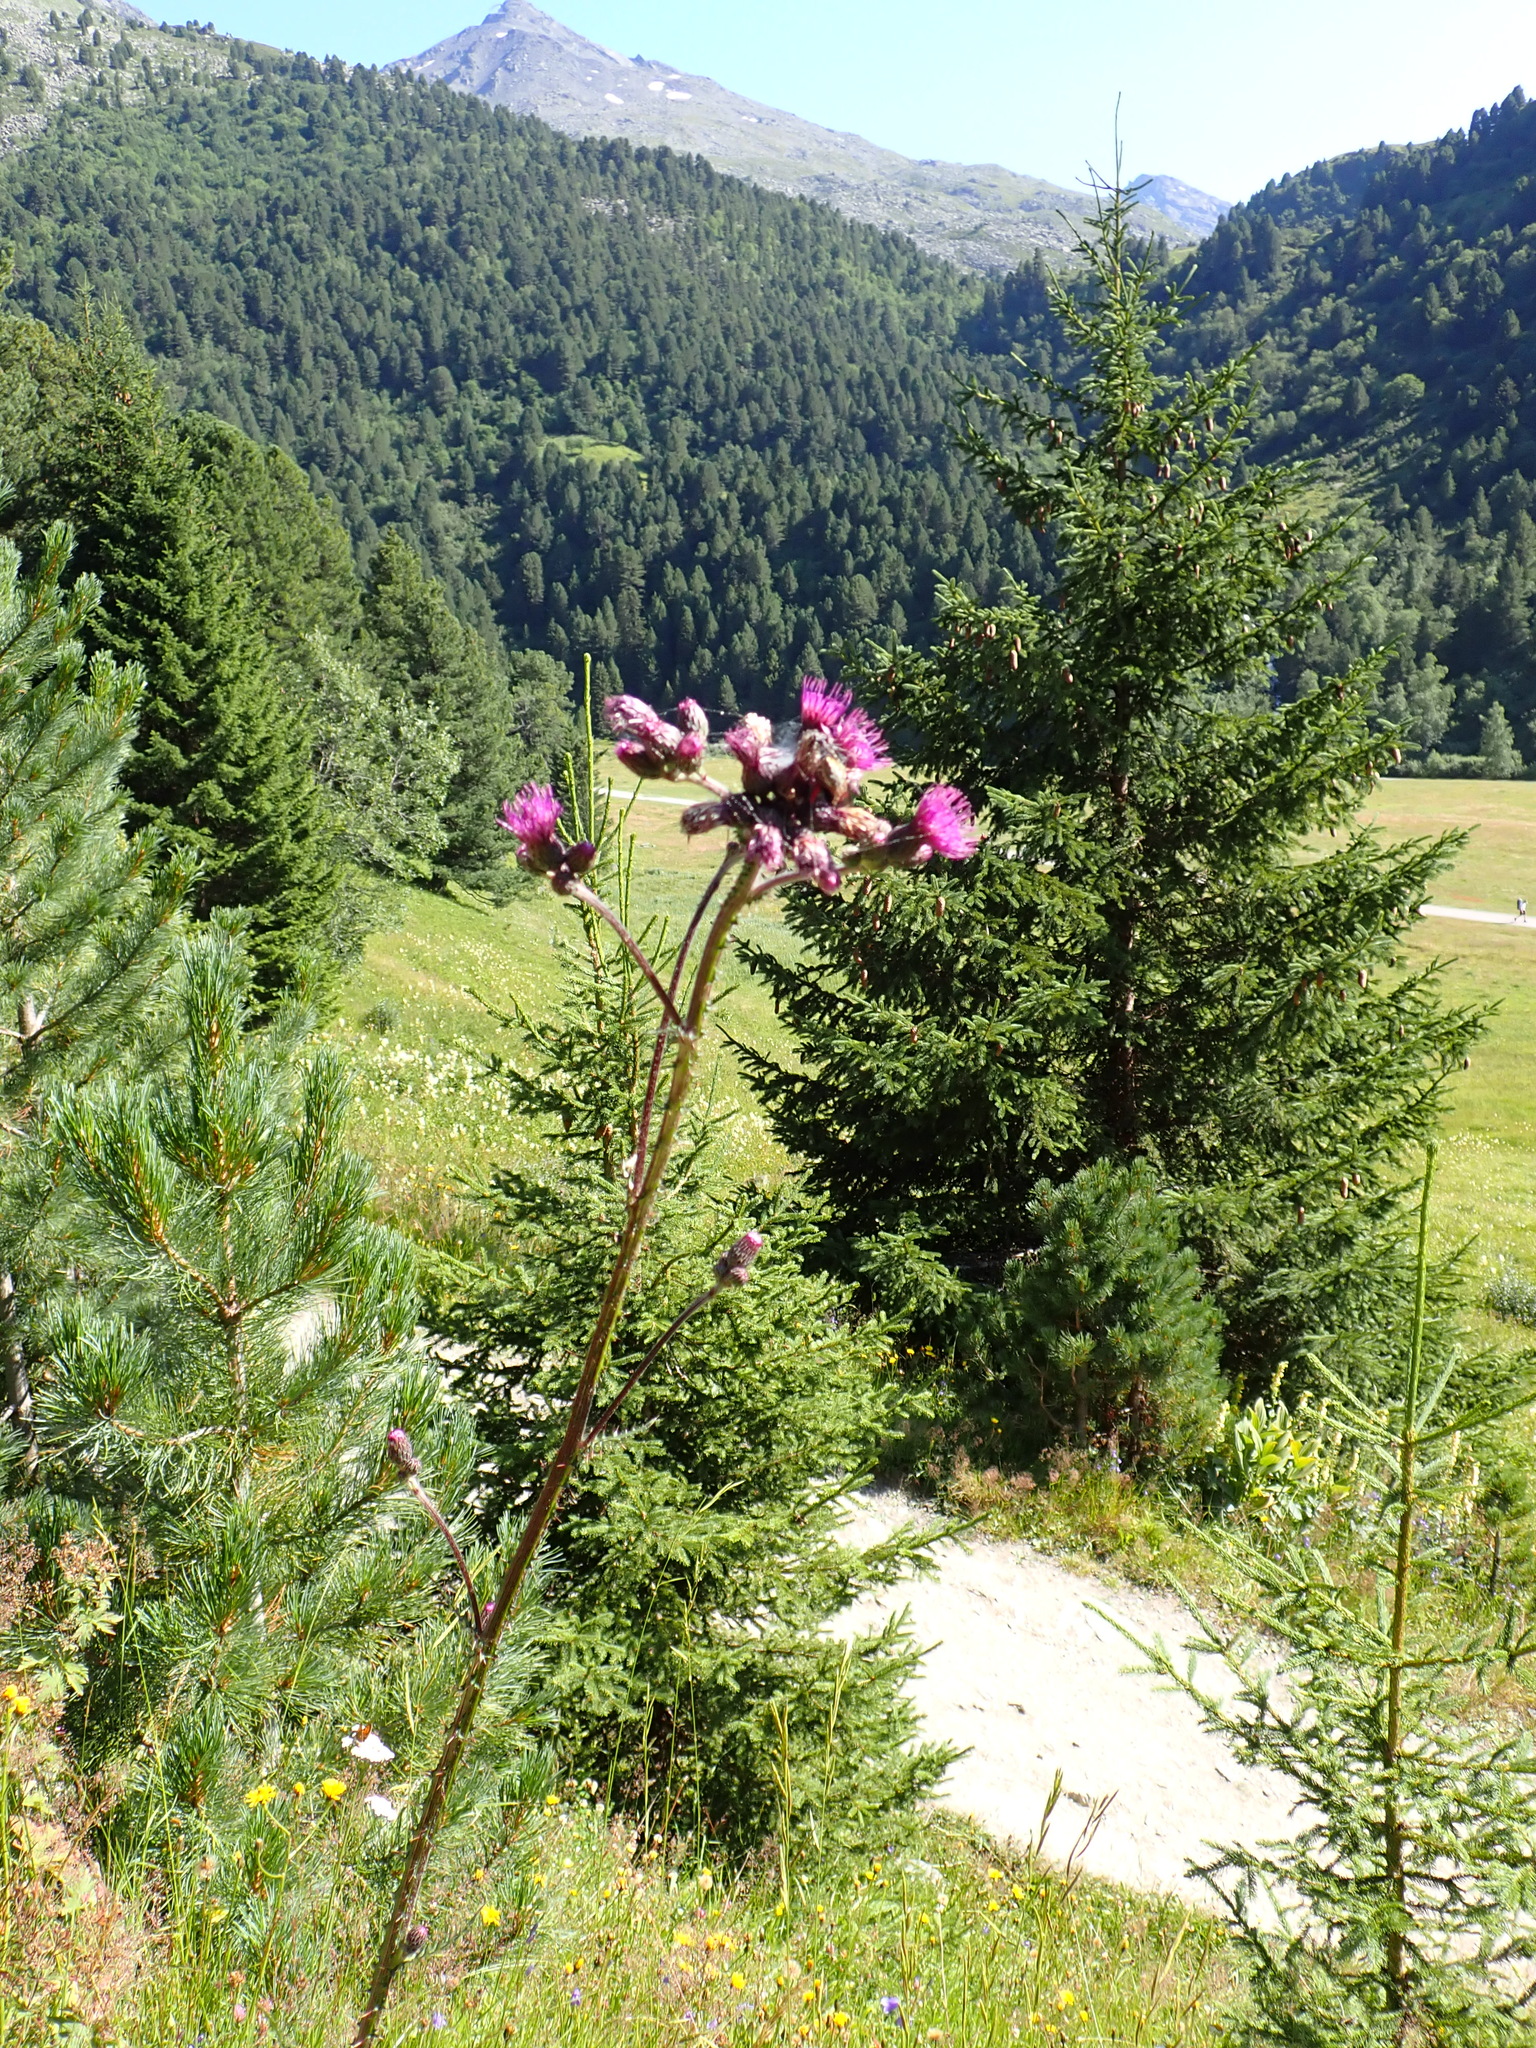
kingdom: Plantae
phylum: Tracheophyta
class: Magnoliopsida
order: Asterales
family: Asteraceae
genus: Cirsium
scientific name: Cirsium palustre
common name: Marsh thistle
